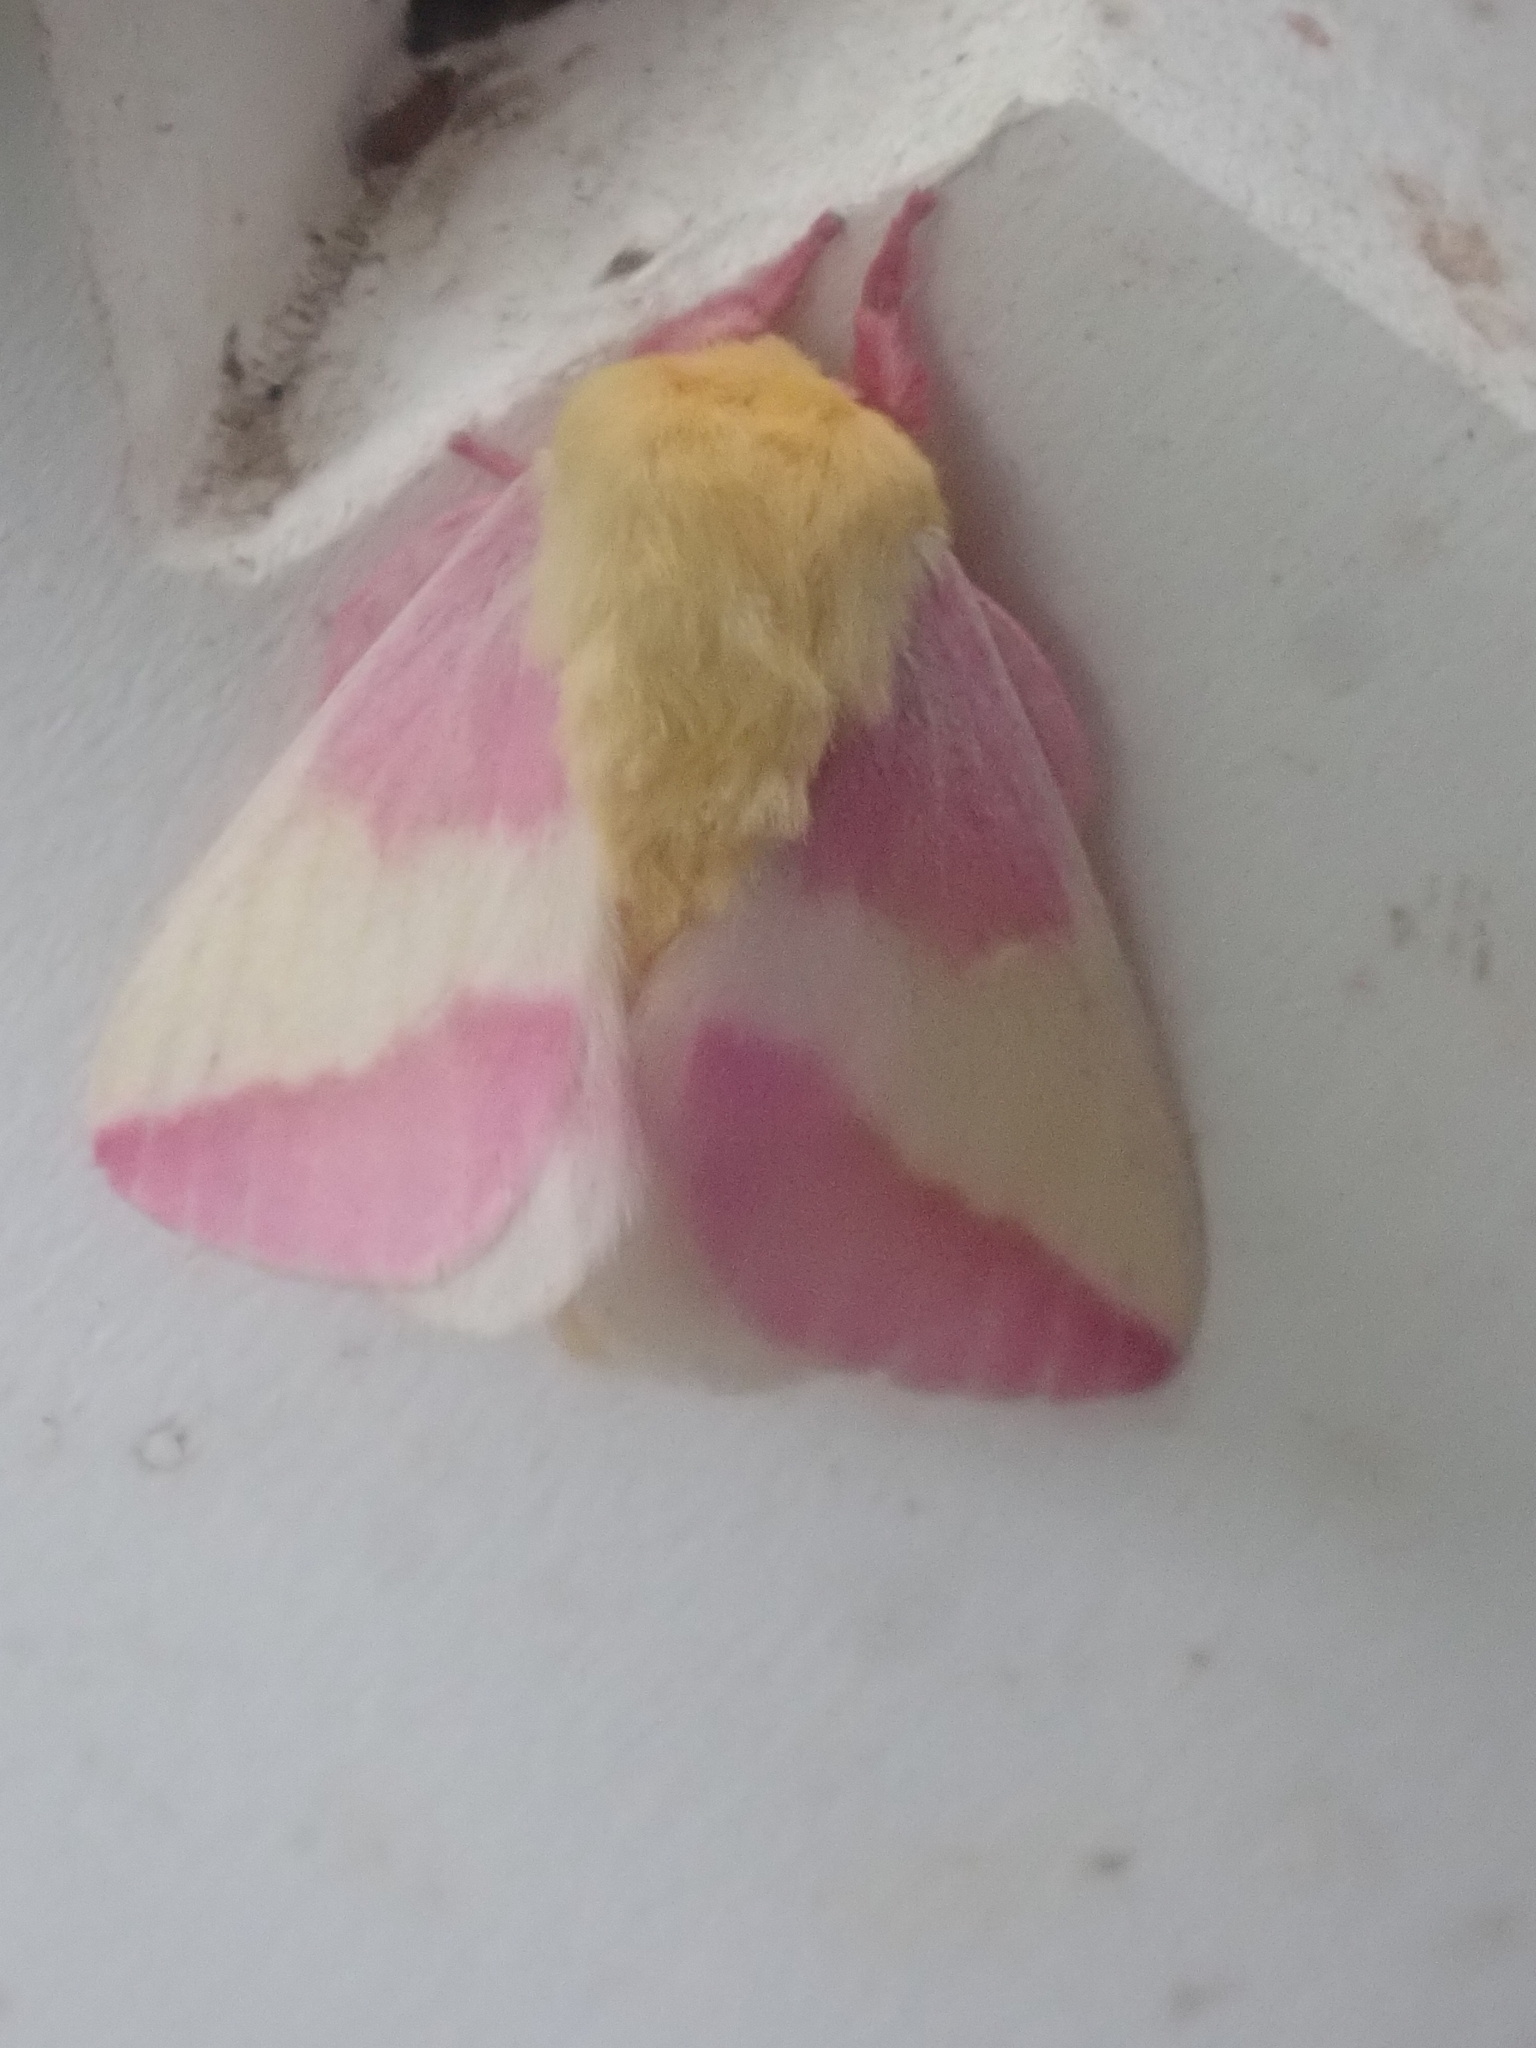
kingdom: Animalia
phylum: Arthropoda
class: Insecta
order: Lepidoptera
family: Saturniidae
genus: Dryocampa
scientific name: Dryocampa rubicunda
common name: Rosy maple moth
